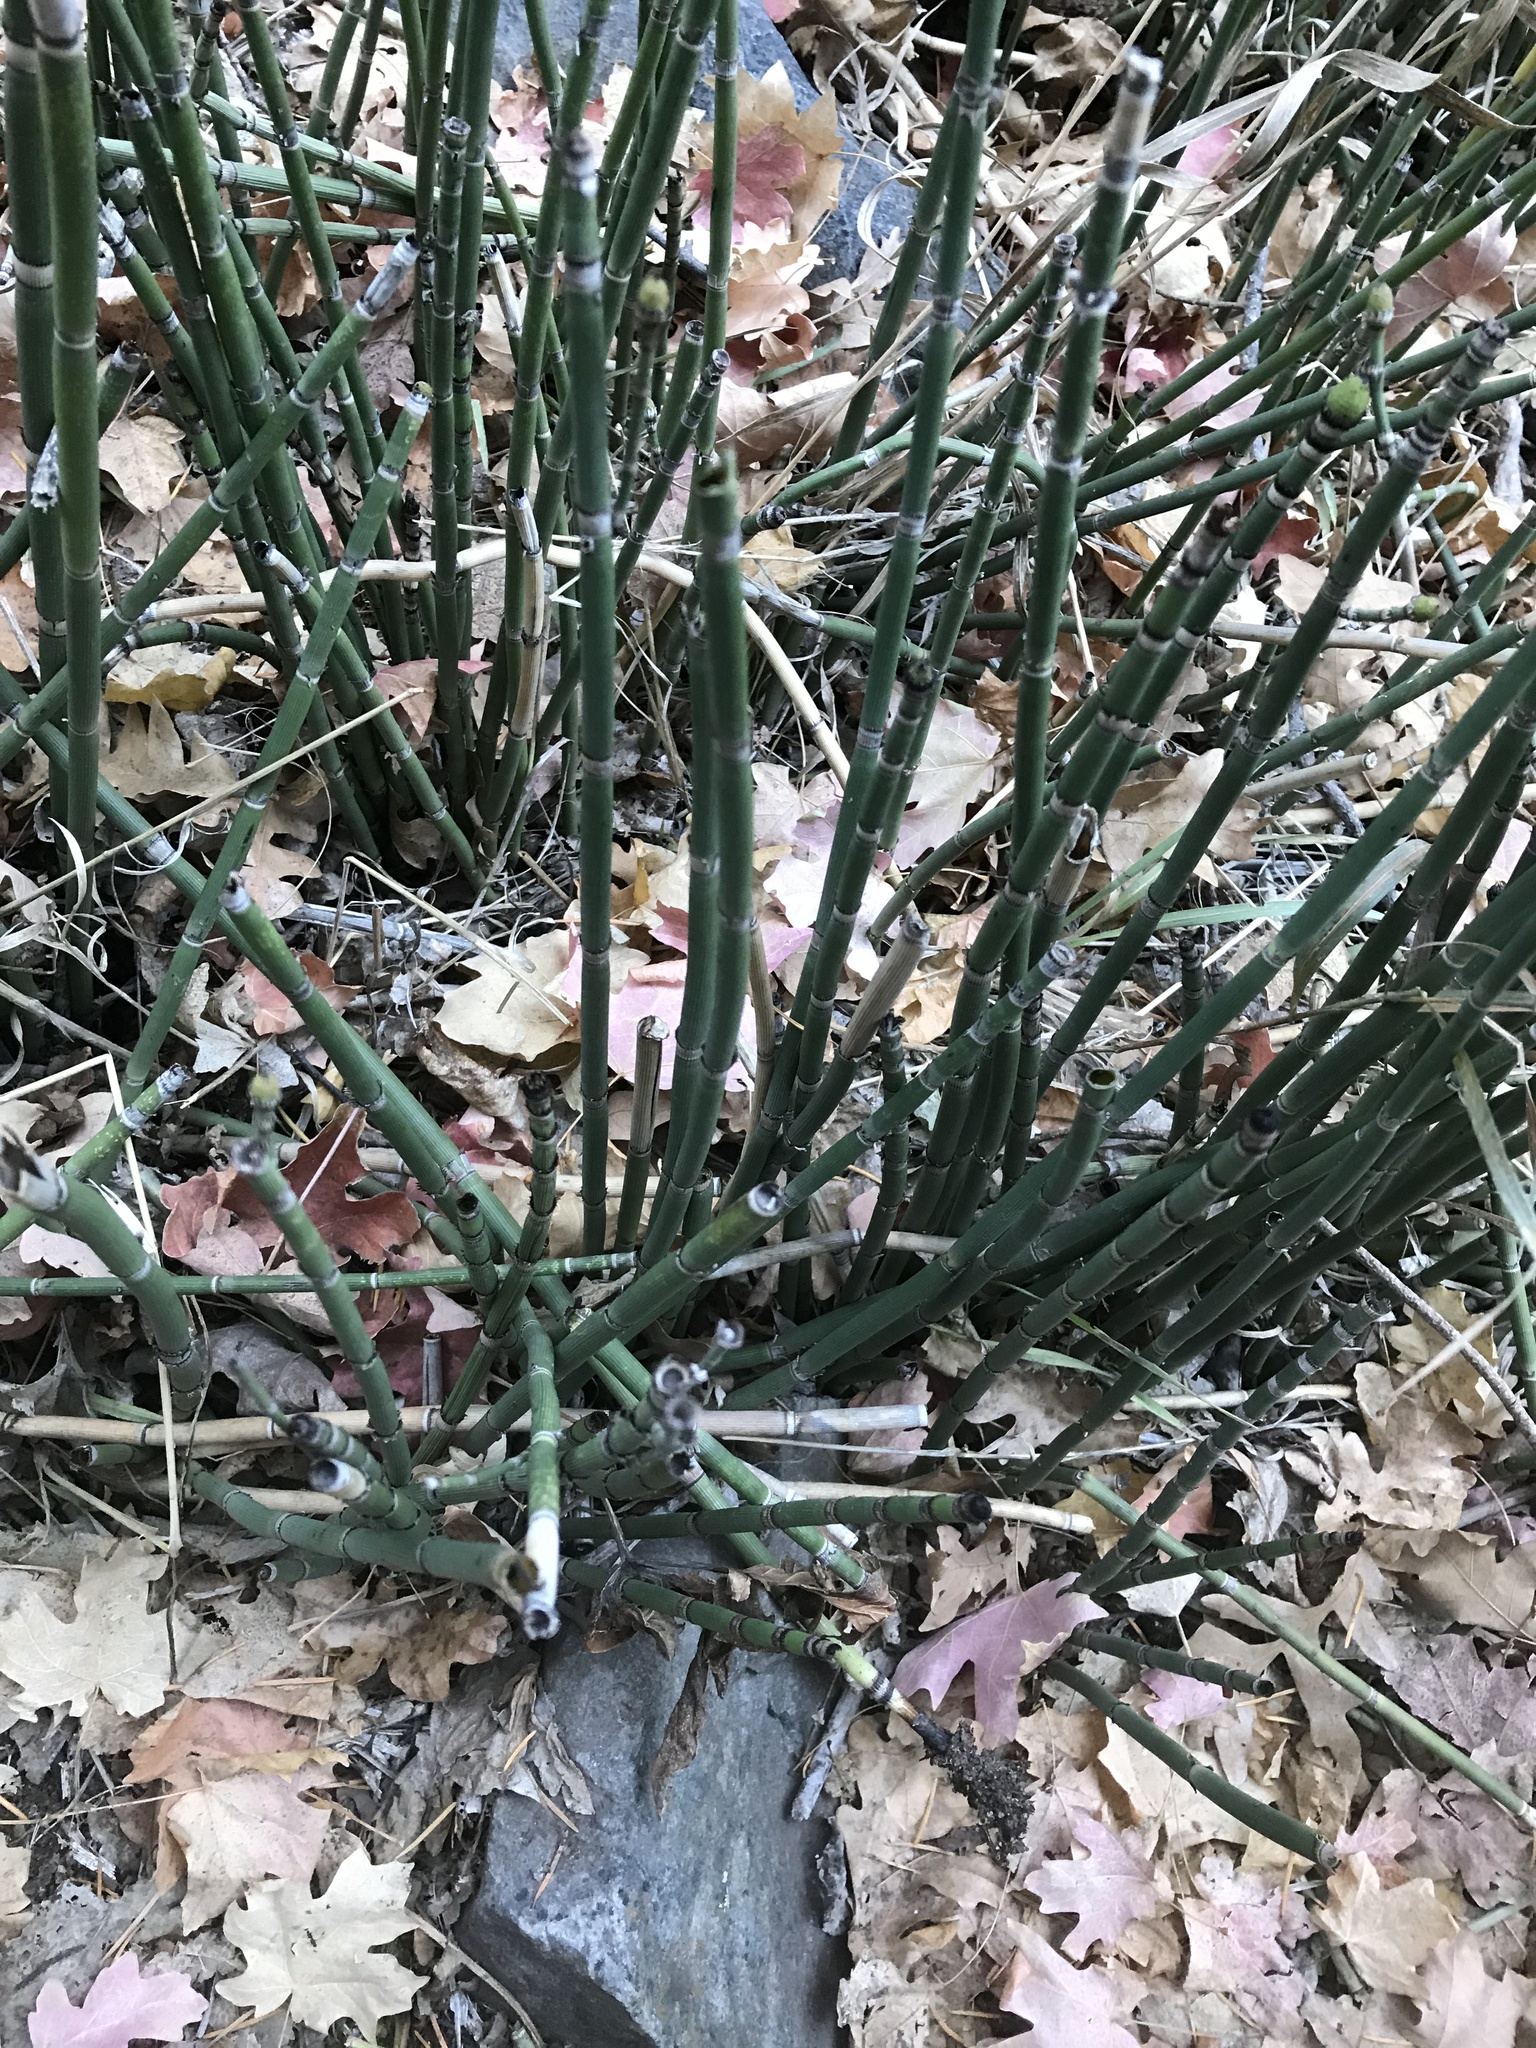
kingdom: Plantae
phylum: Tracheophyta
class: Polypodiopsida
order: Equisetales
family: Equisetaceae
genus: Equisetum
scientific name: Equisetum praealtum
